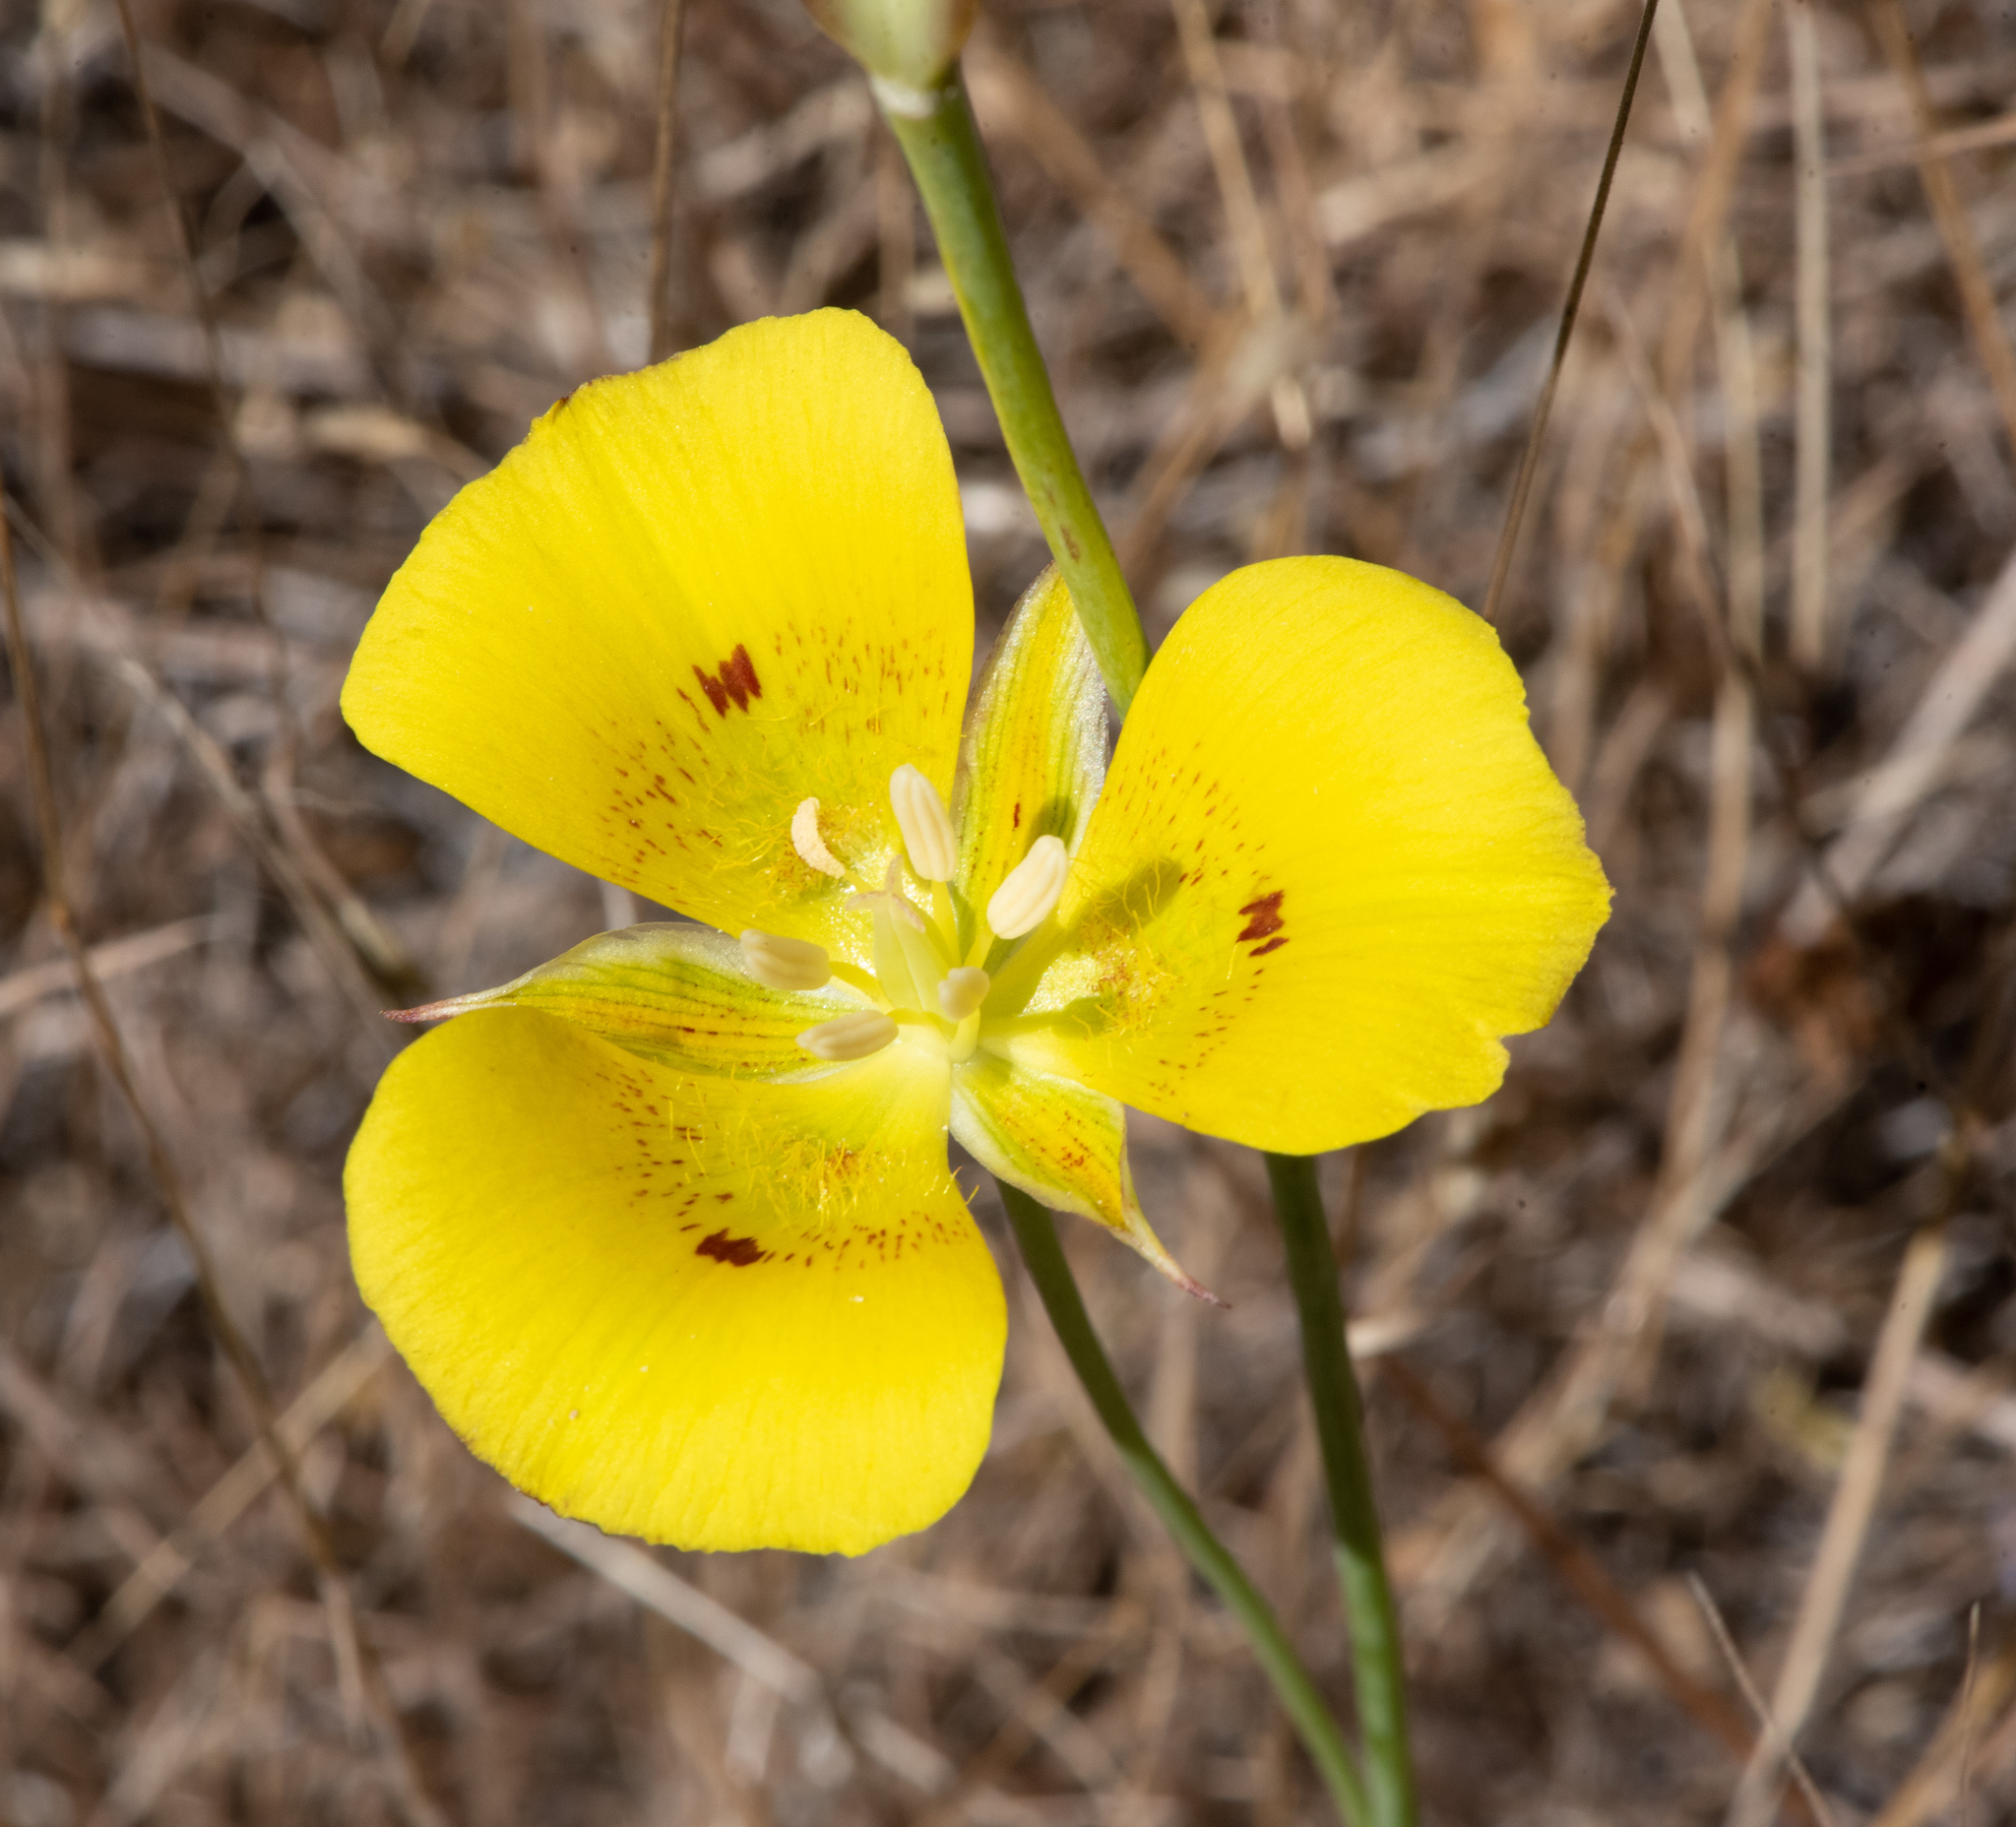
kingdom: Plantae
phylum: Tracheophyta
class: Liliopsida
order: Liliales
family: Liliaceae
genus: Calochortus
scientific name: Calochortus luteus
